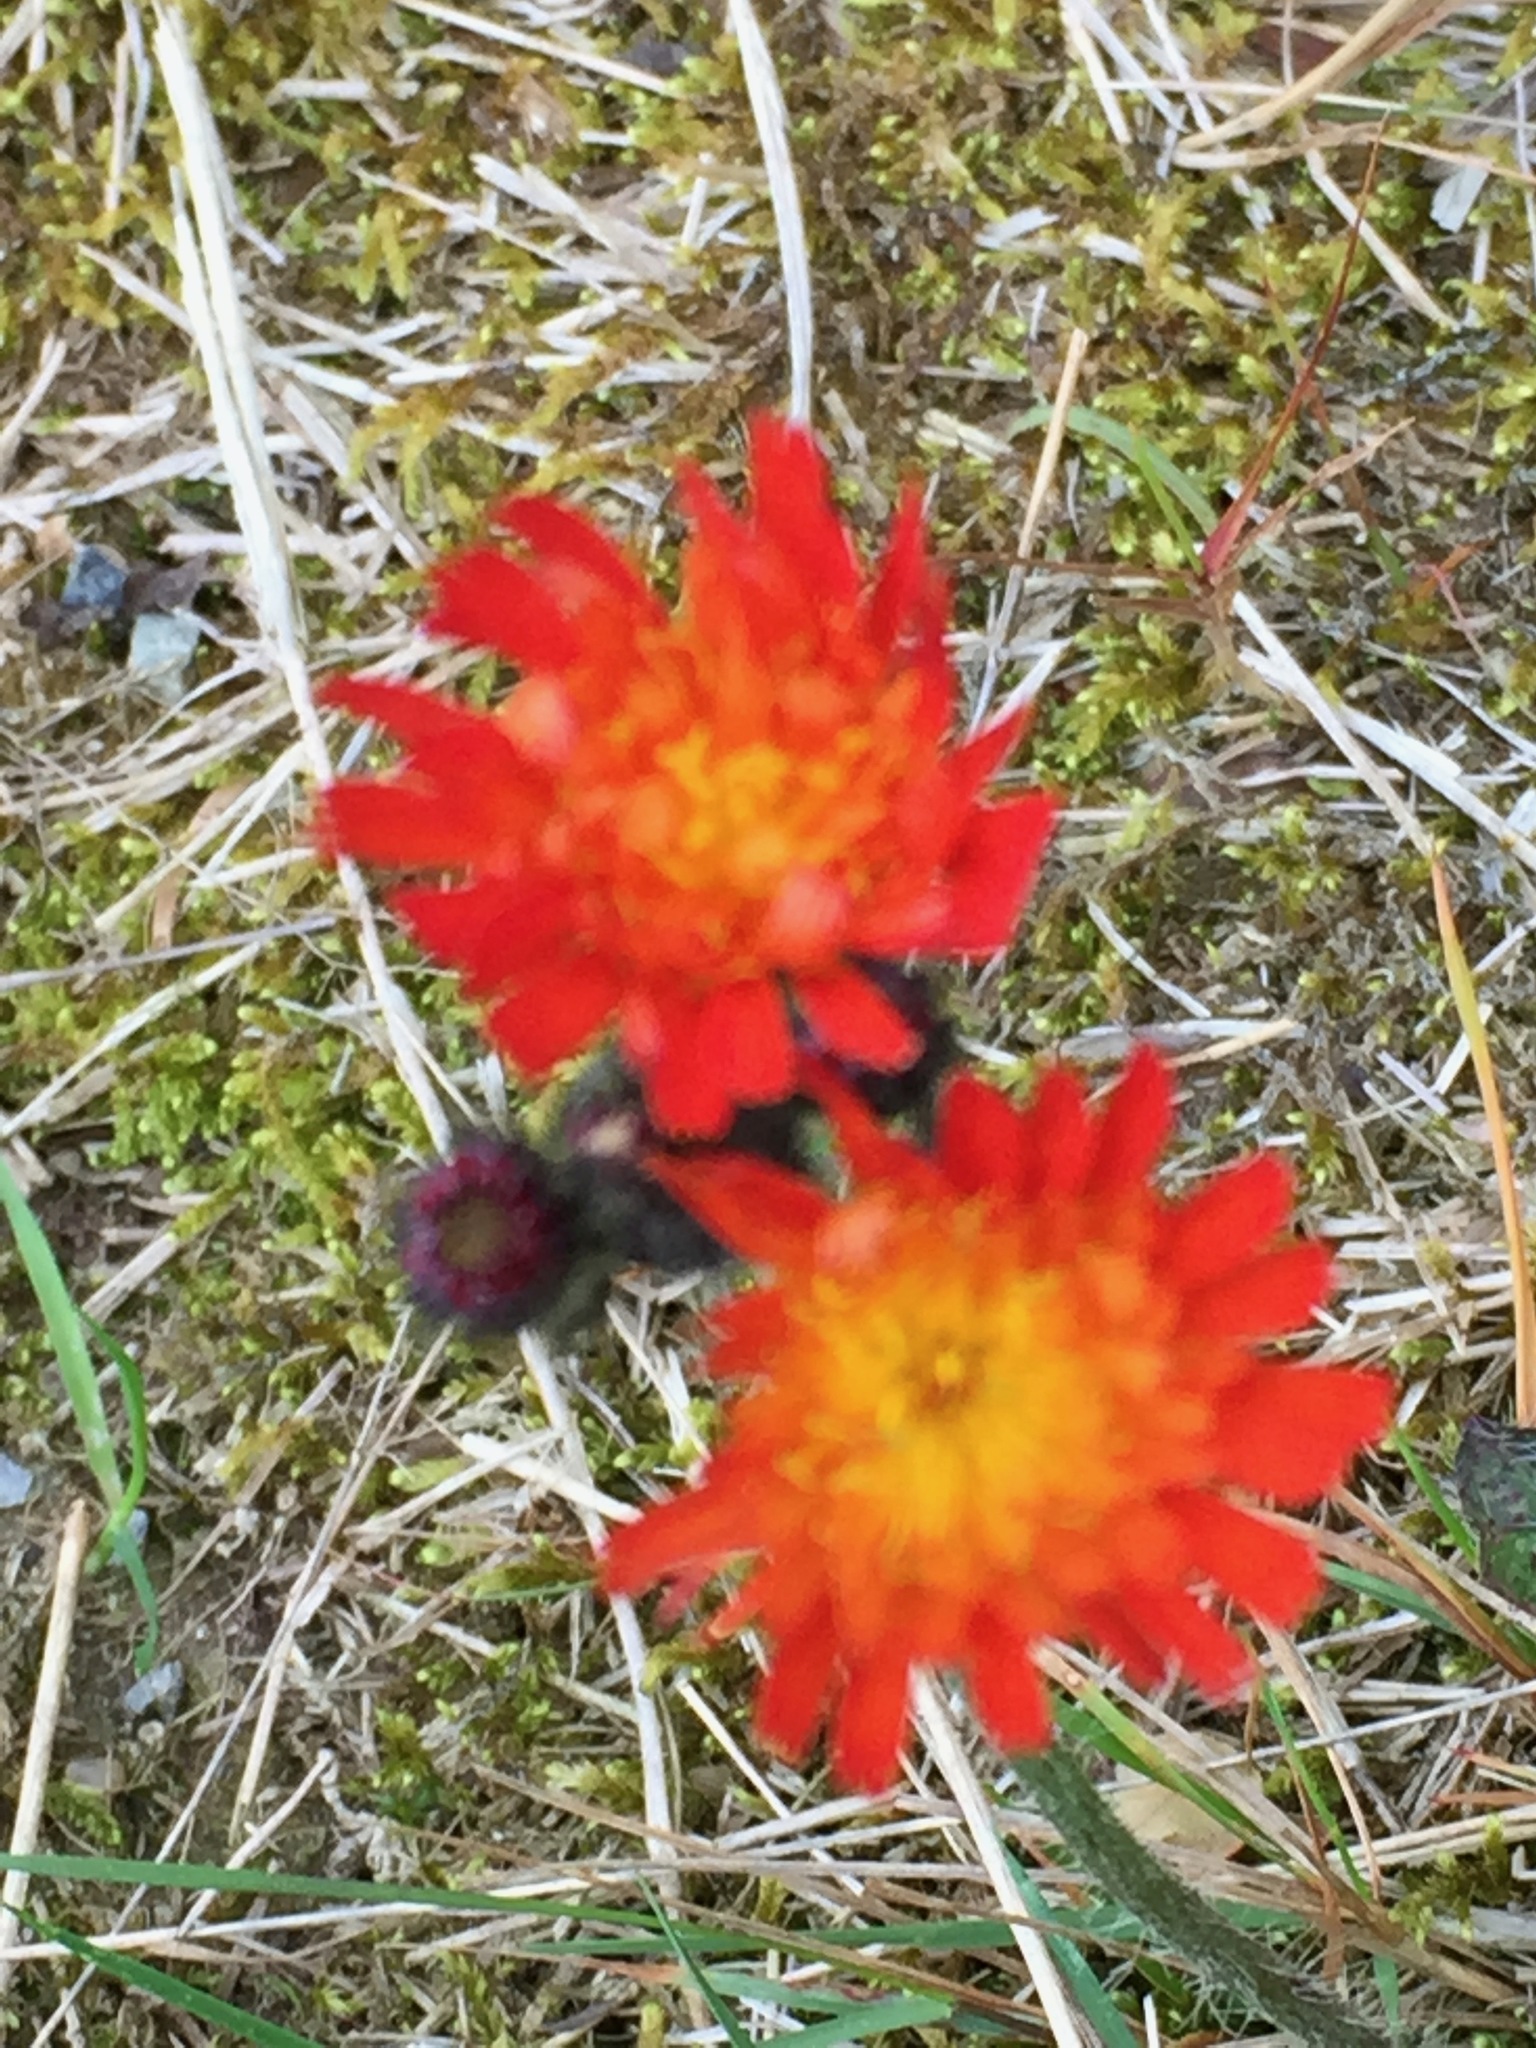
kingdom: Plantae
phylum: Tracheophyta
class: Magnoliopsida
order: Asterales
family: Asteraceae
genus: Pilosella
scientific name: Pilosella aurantiaca
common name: Fox-and-cubs
